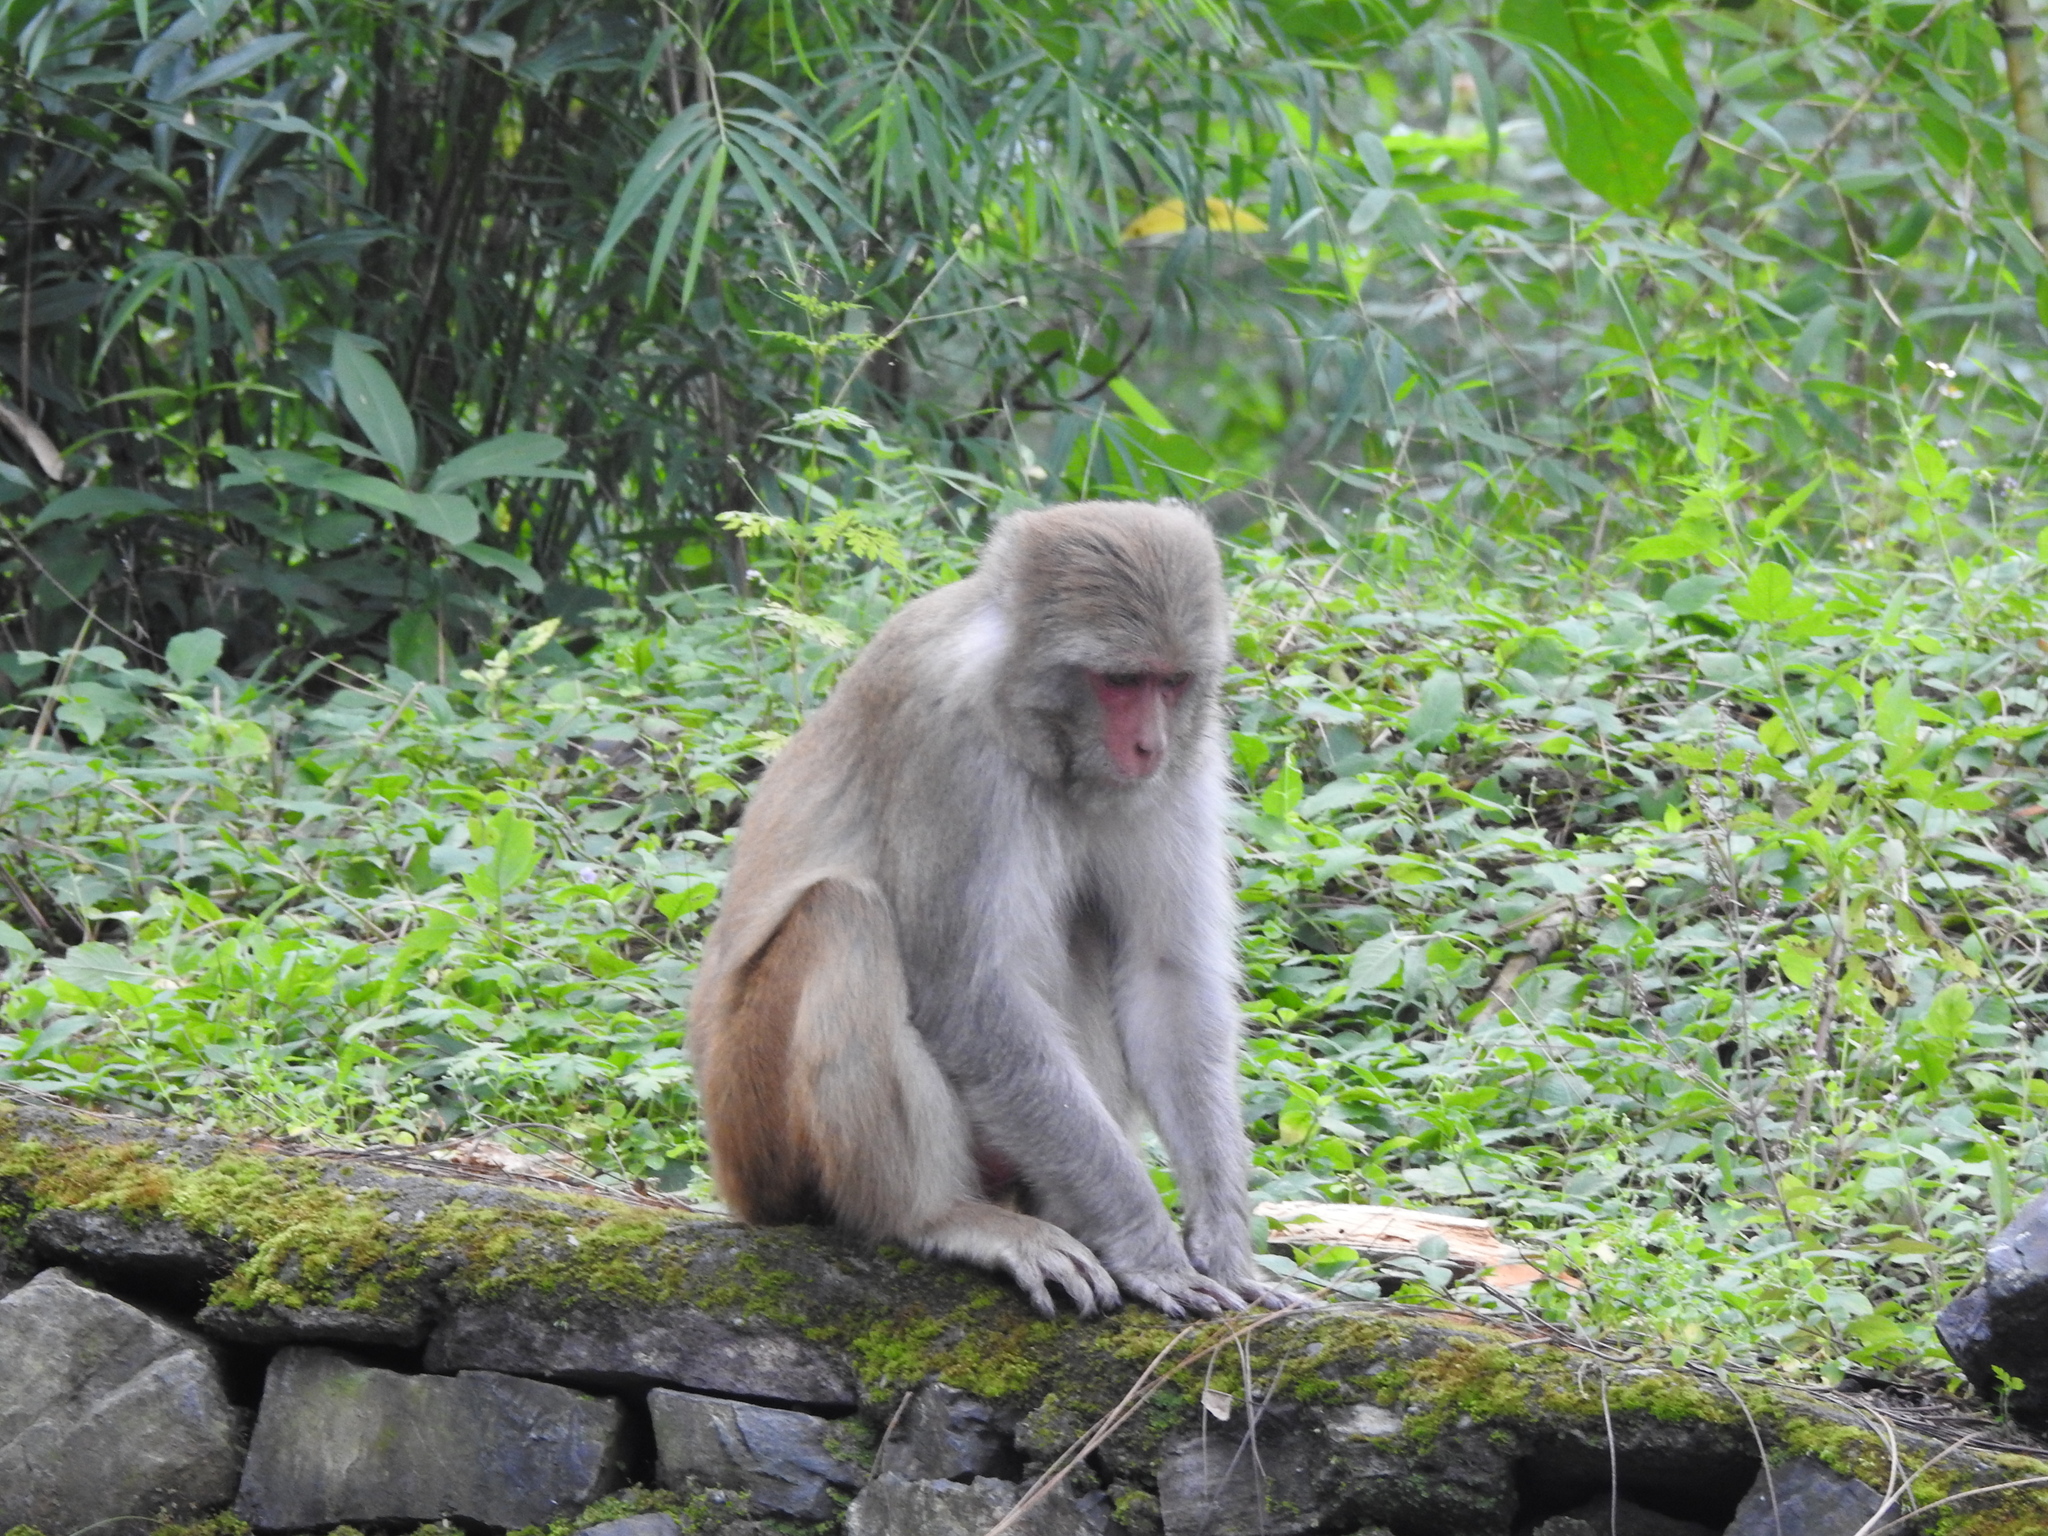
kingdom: Animalia
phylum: Chordata
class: Mammalia
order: Primates
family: Cercopithecidae
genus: Macaca
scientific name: Macaca mulatta
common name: Rhesus monkey
